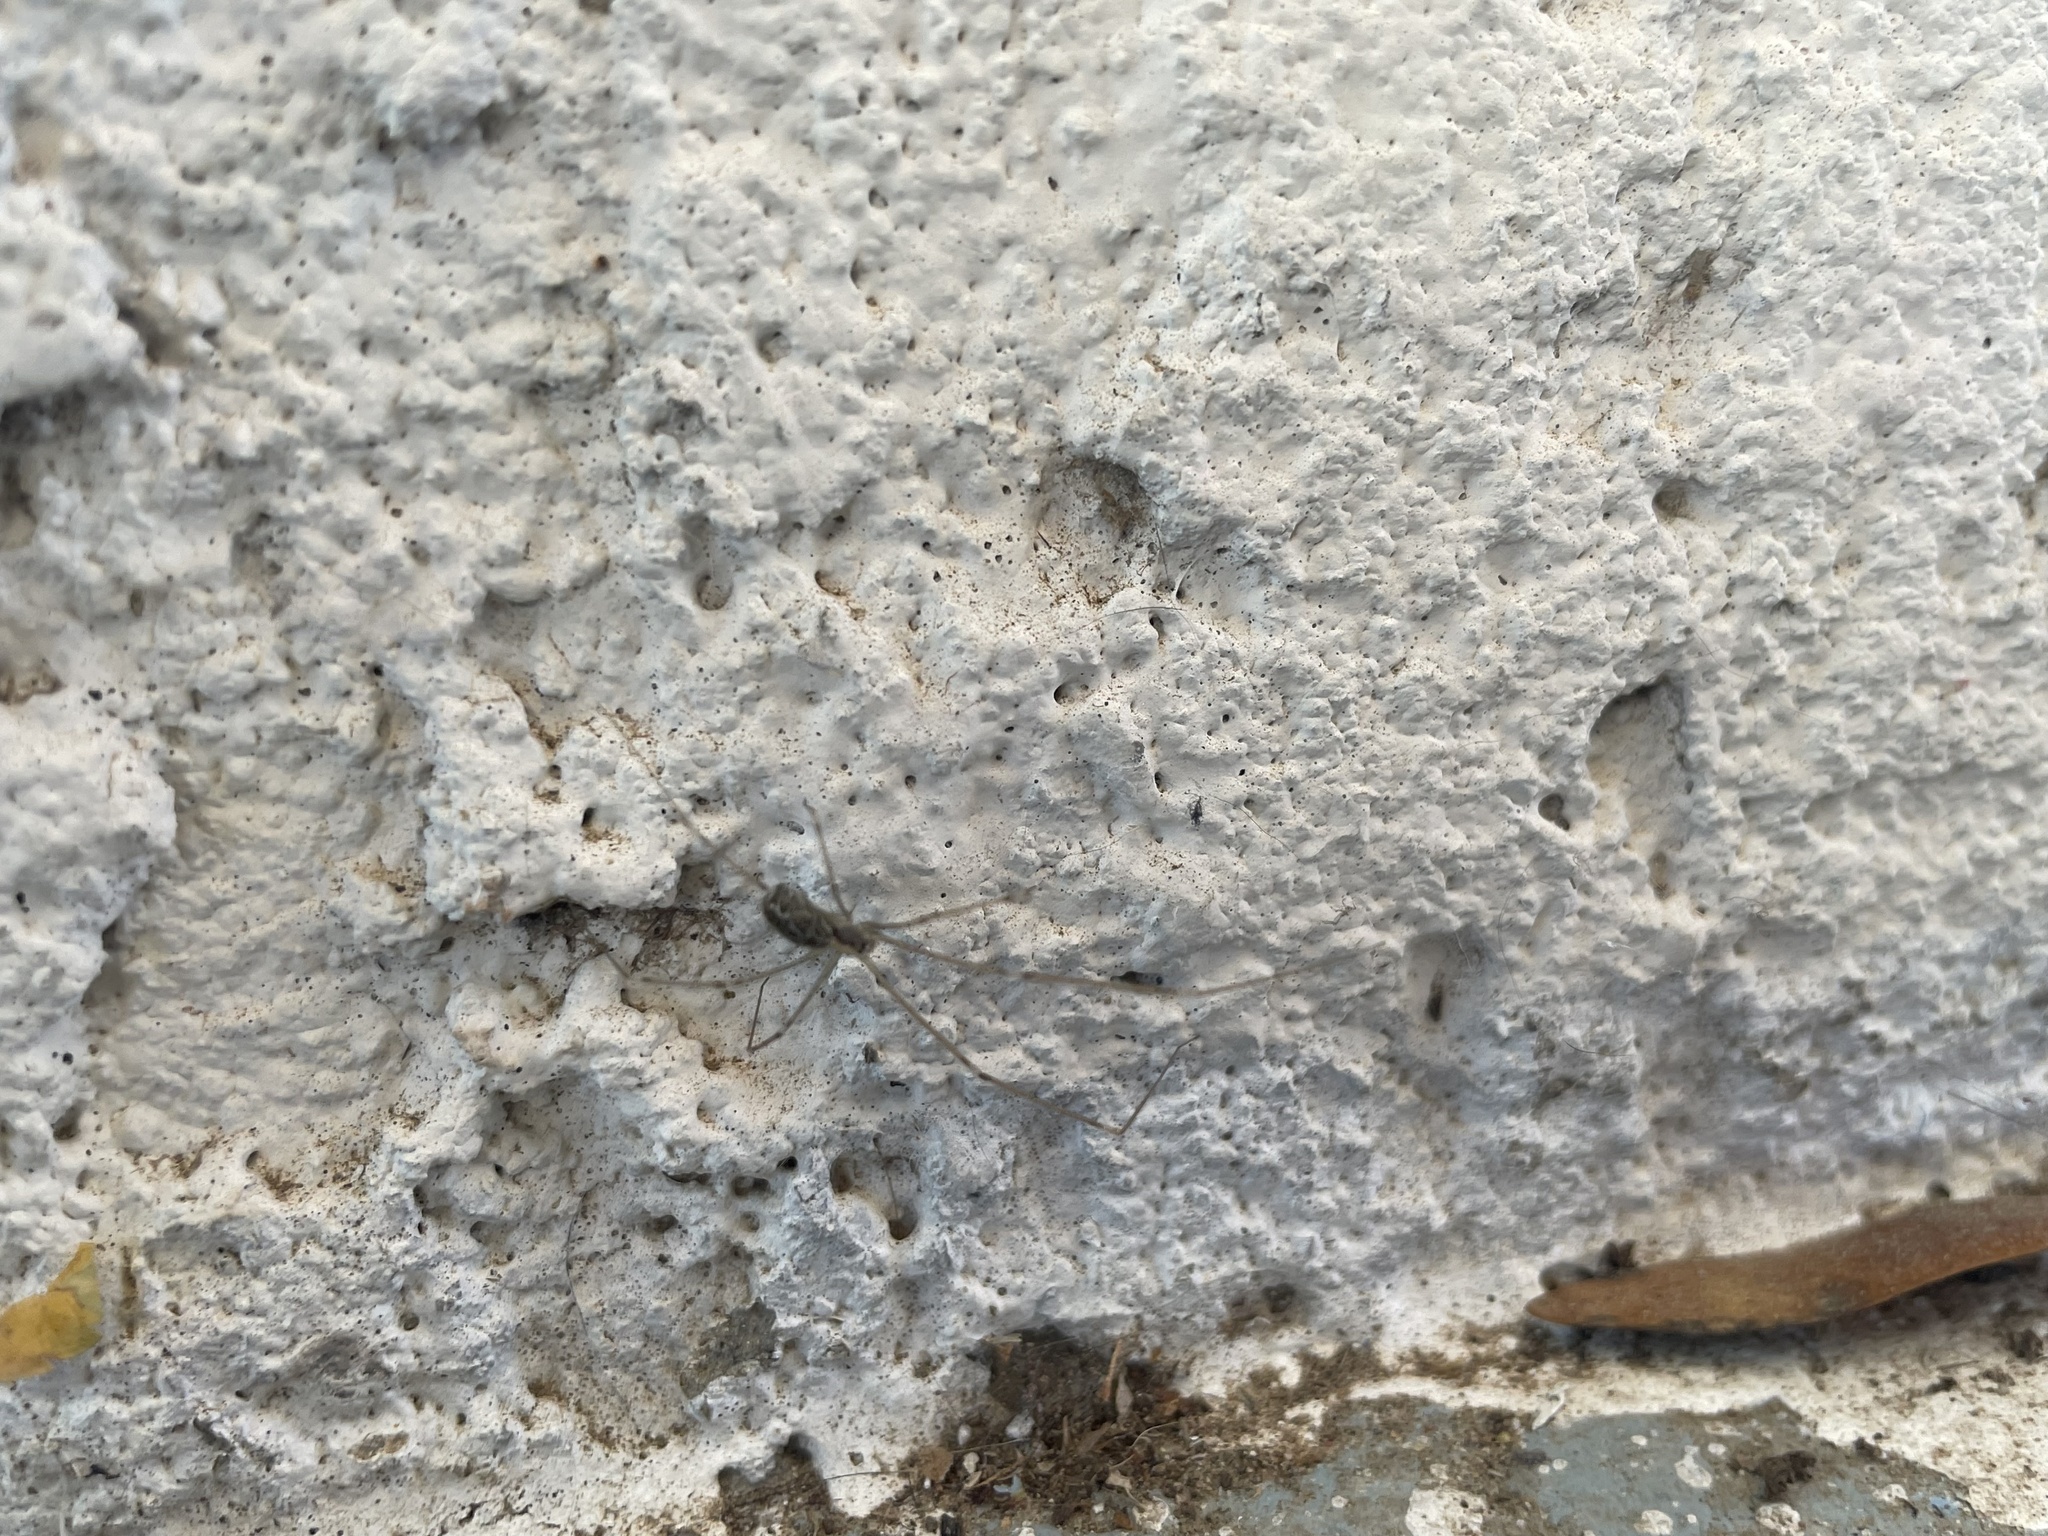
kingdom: Animalia
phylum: Arthropoda
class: Arachnida
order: Araneae
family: Pholcidae
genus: Holocnemus
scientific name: Holocnemus pluchei
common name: Marbled cellar spider
